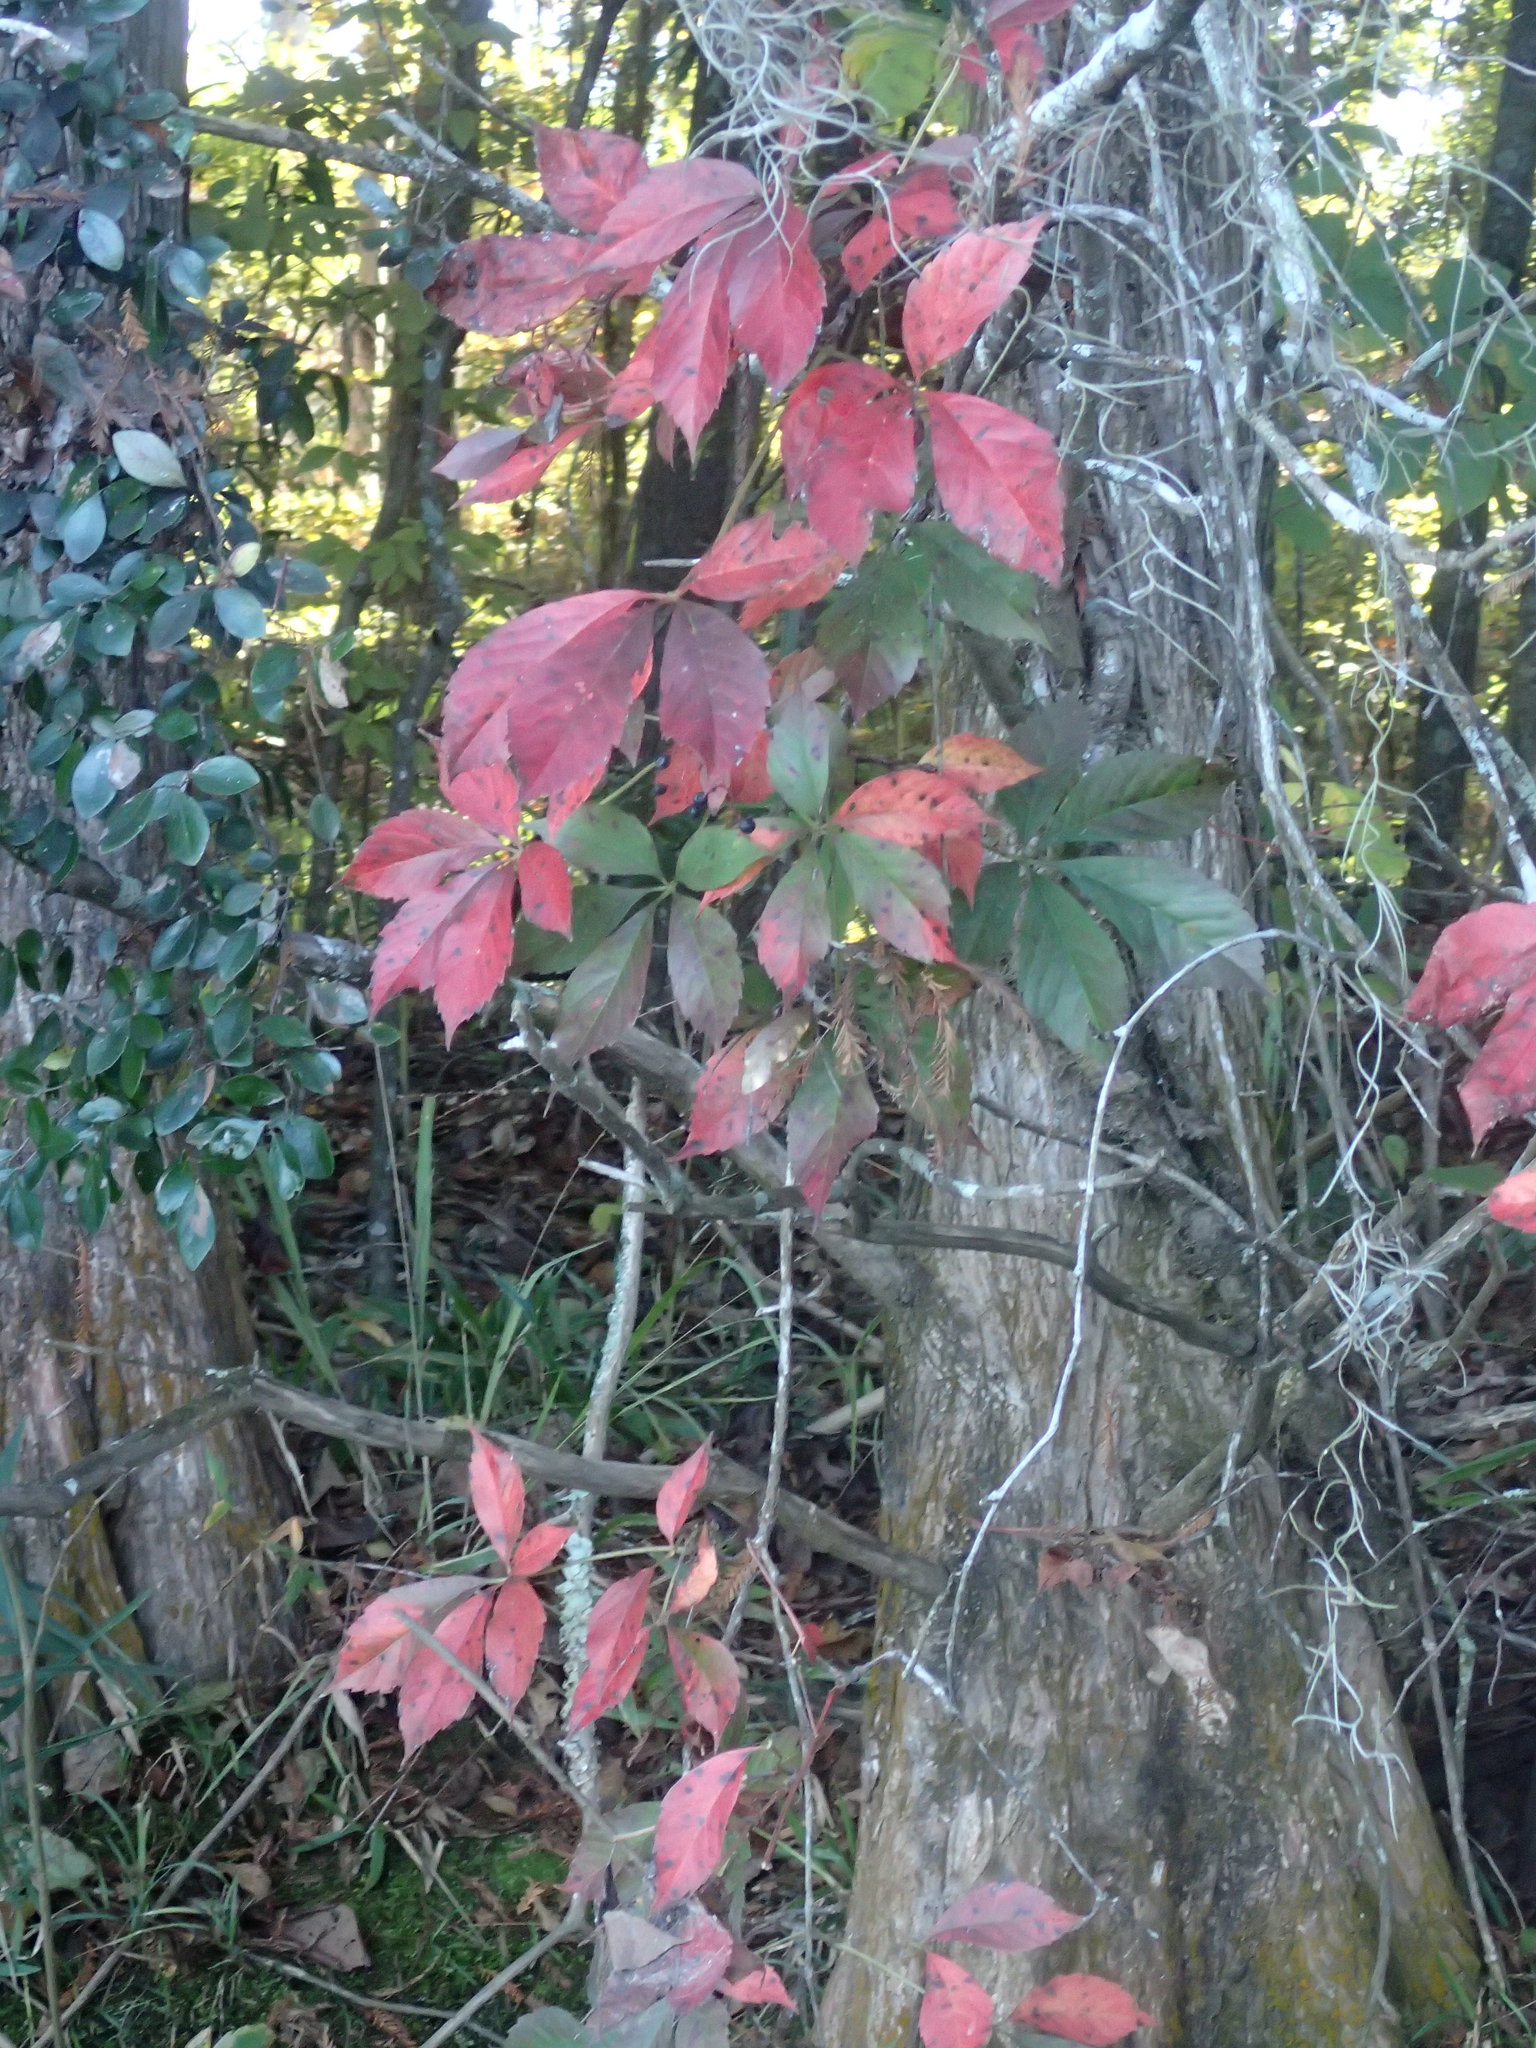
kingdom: Plantae
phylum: Tracheophyta
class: Magnoliopsida
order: Vitales
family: Vitaceae
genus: Parthenocissus
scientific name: Parthenocissus quinquefolia
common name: Virginia-creeper
